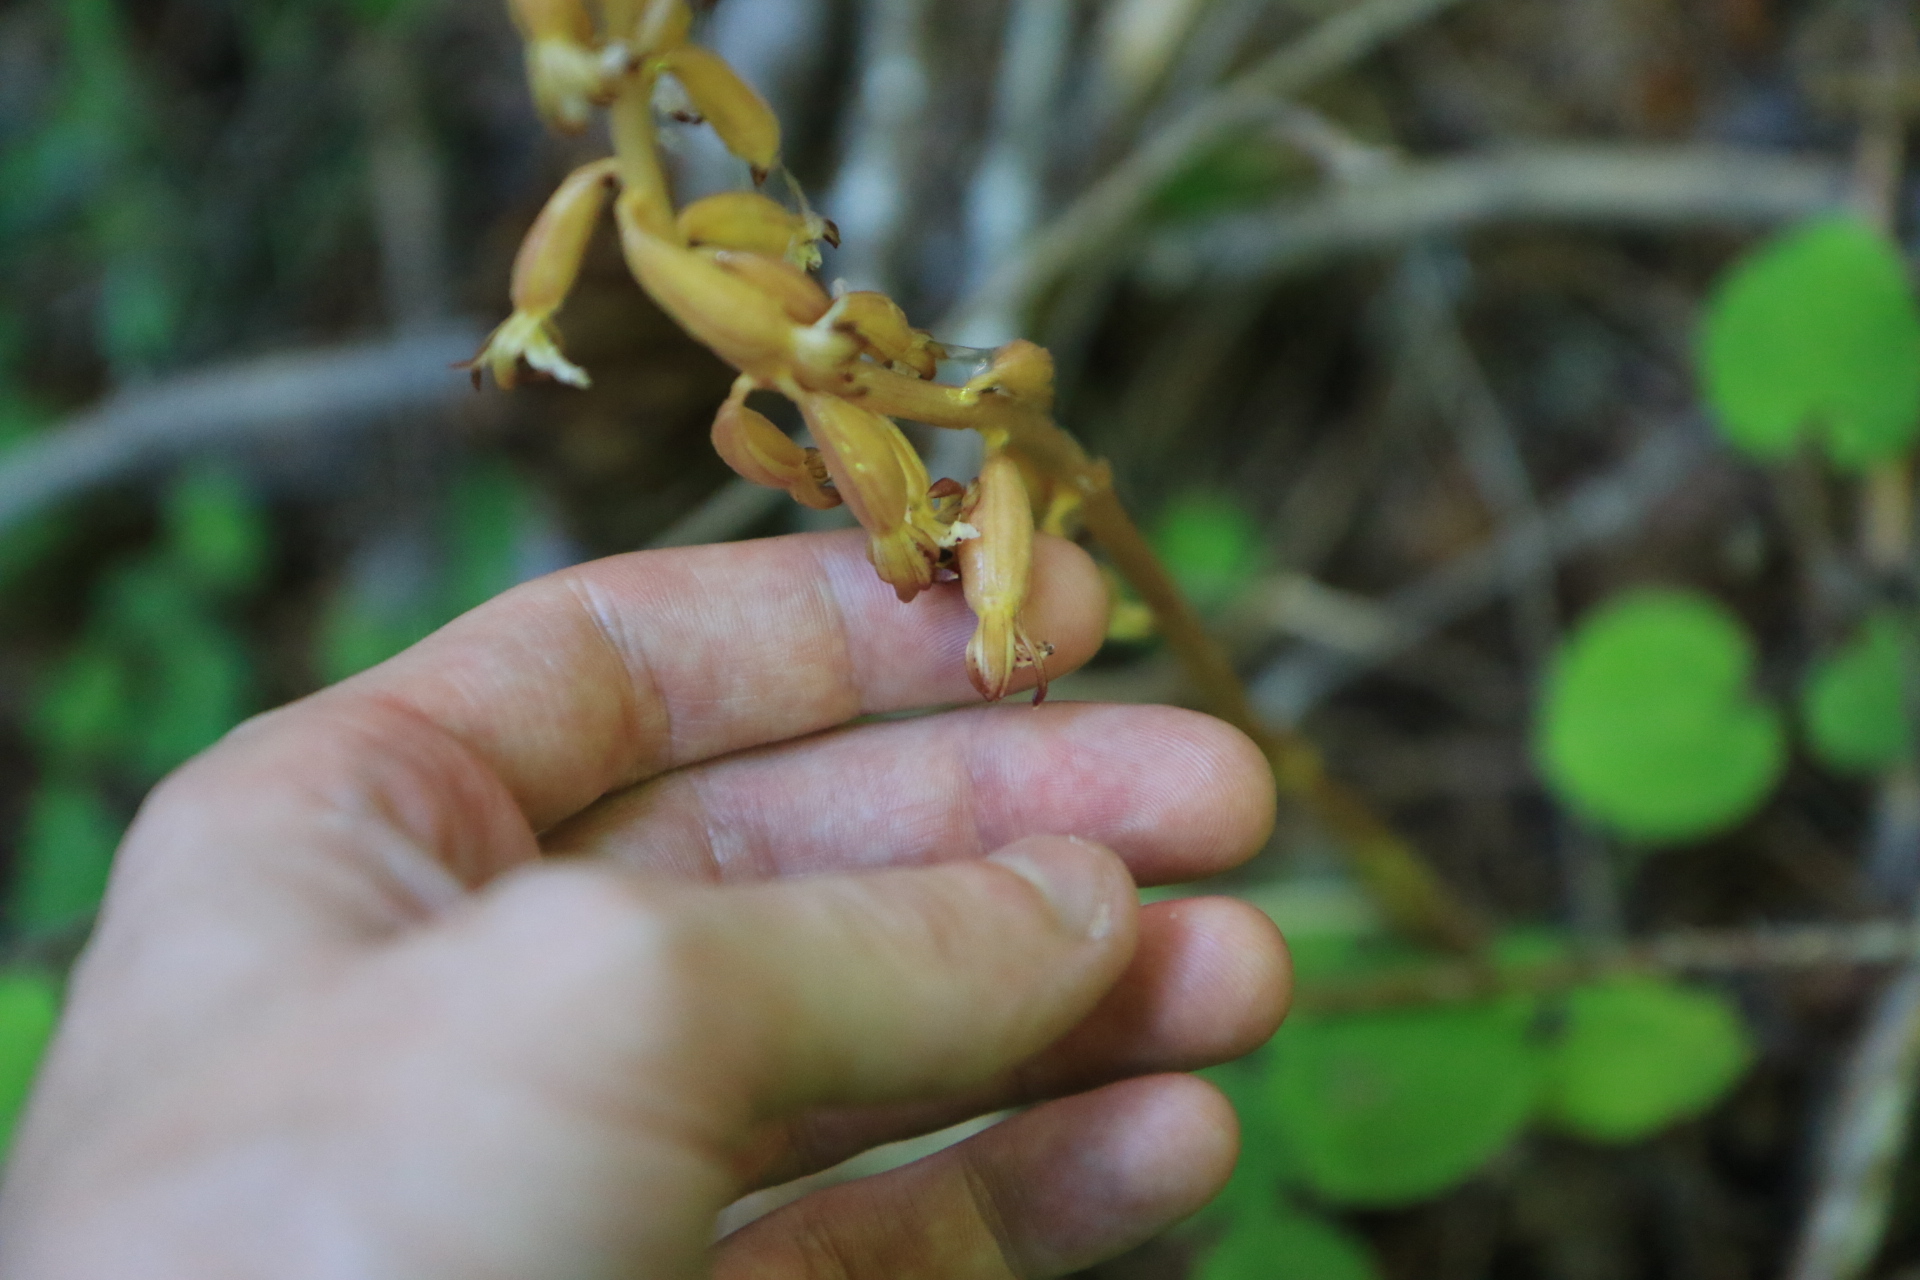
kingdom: Plantae
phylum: Tracheophyta
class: Liliopsida
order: Asparagales
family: Orchidaceae
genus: Corallorhiza
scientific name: Corallorhiza maculata
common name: Spotted coralroot
